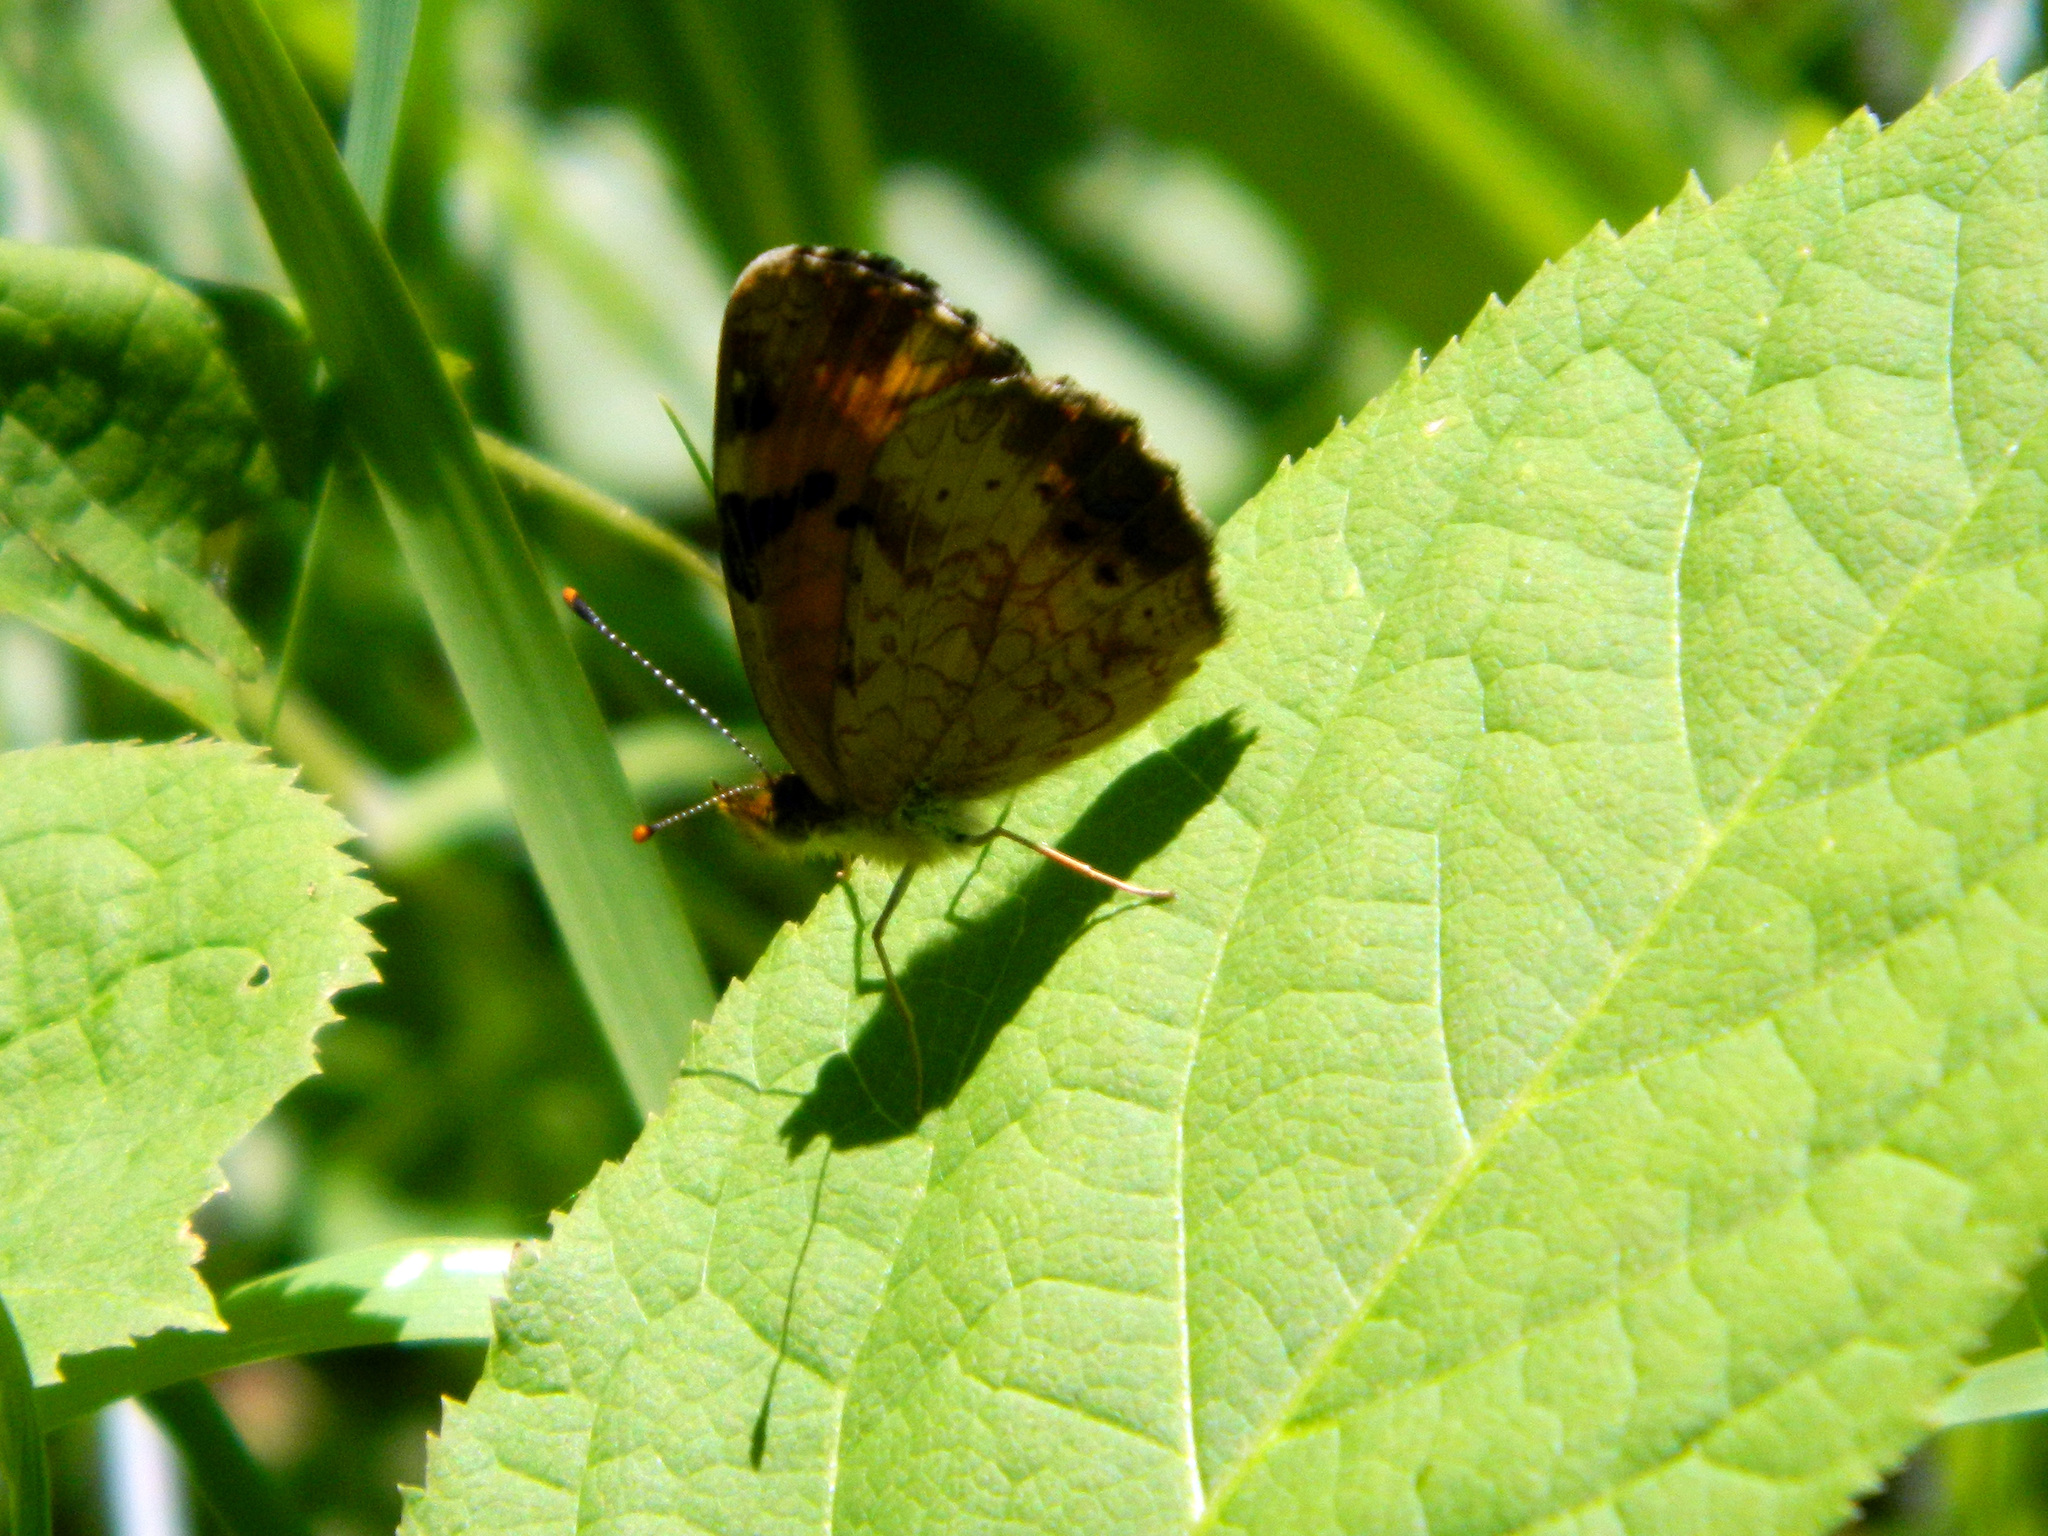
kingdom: Animalia
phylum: Arthropoda
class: Insecta
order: Lepidoptera
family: Nymphalidae
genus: Phyciodes
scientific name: Phyciodes tharos
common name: Pearl crescent
